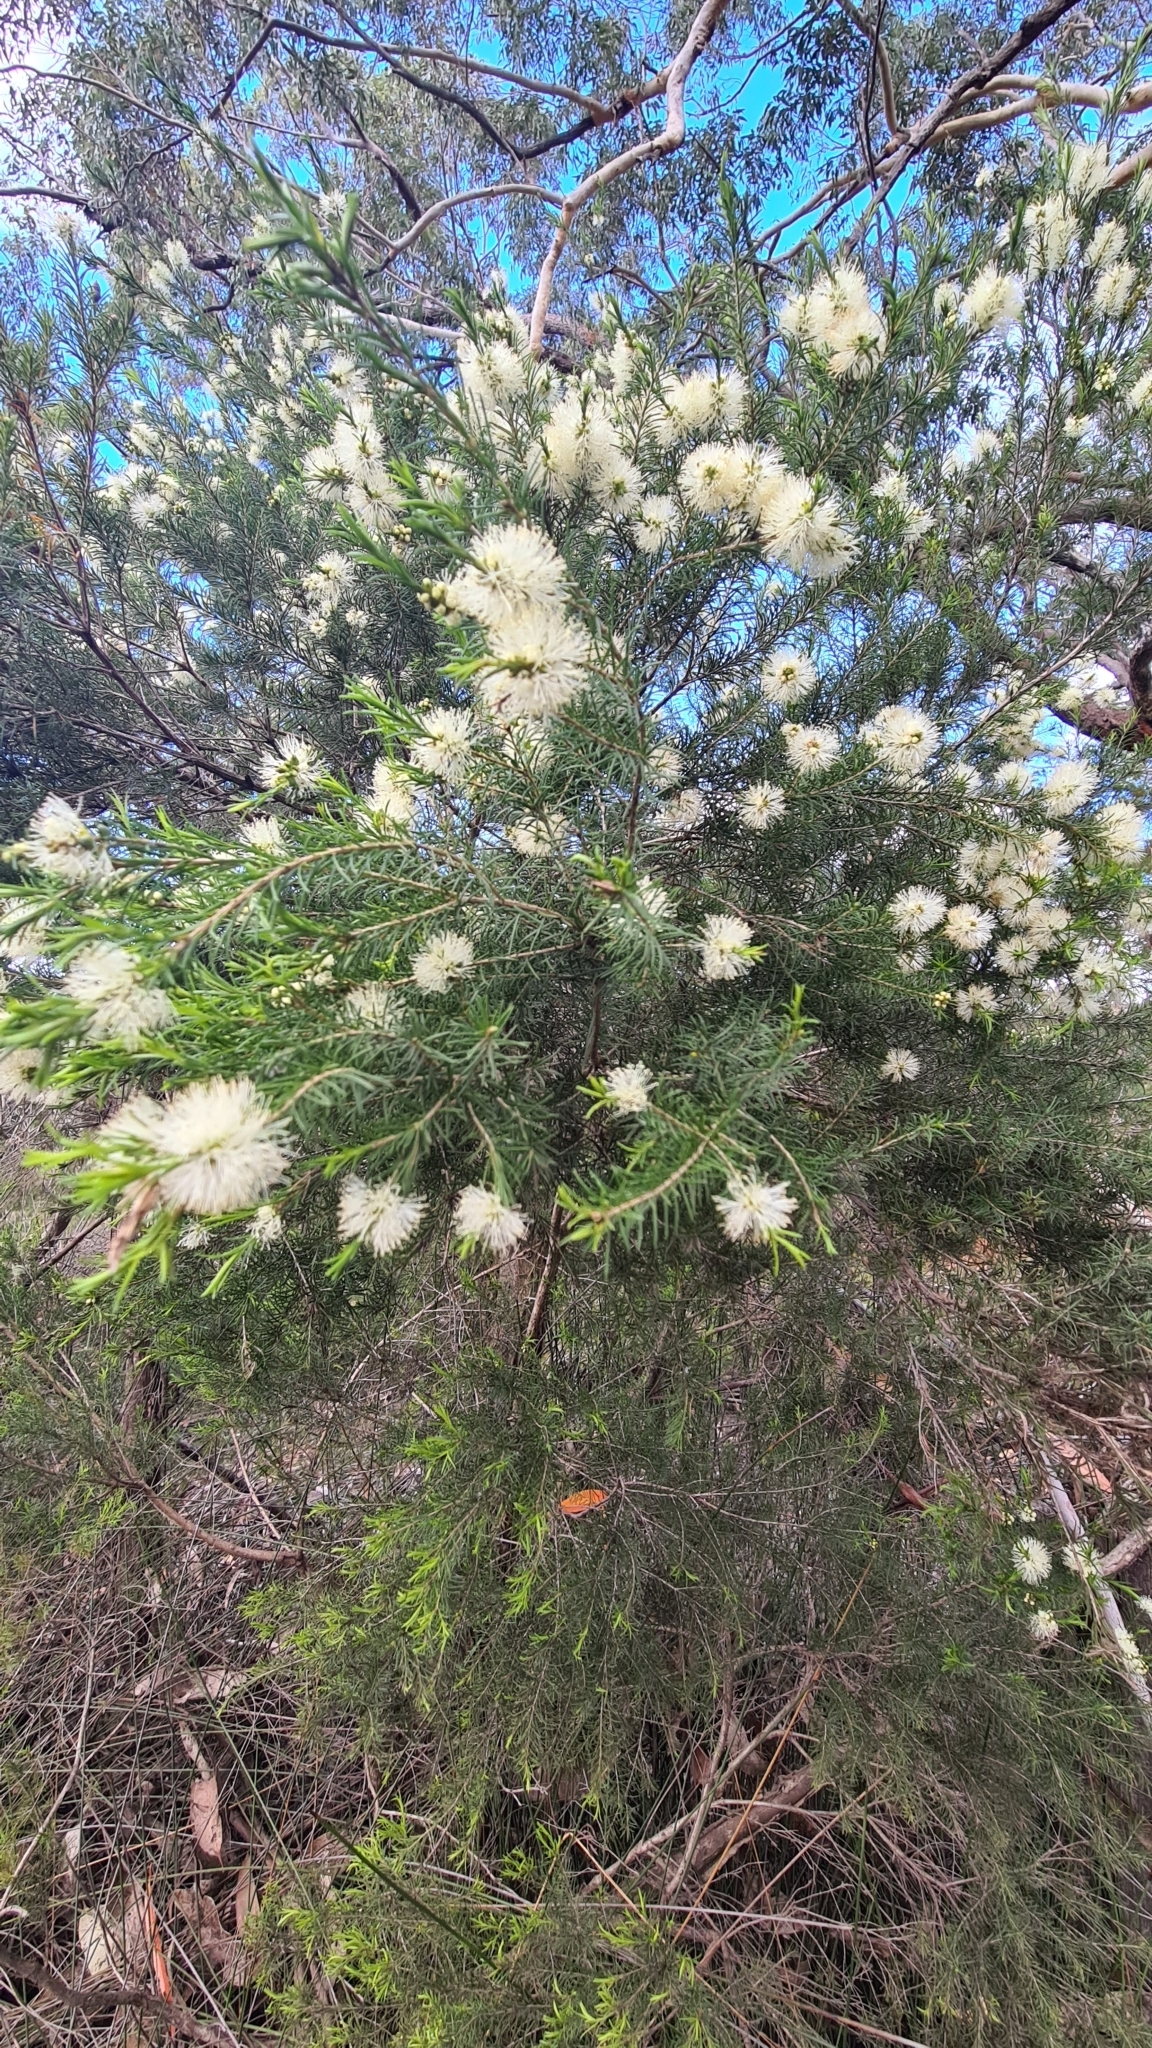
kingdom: Plantae
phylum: Tracheophyta
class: Magnoliopsida
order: Myrtales
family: Myrtaceae
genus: Melaleuca
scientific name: Melaleuca ericifolia
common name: Paperbark teatree
